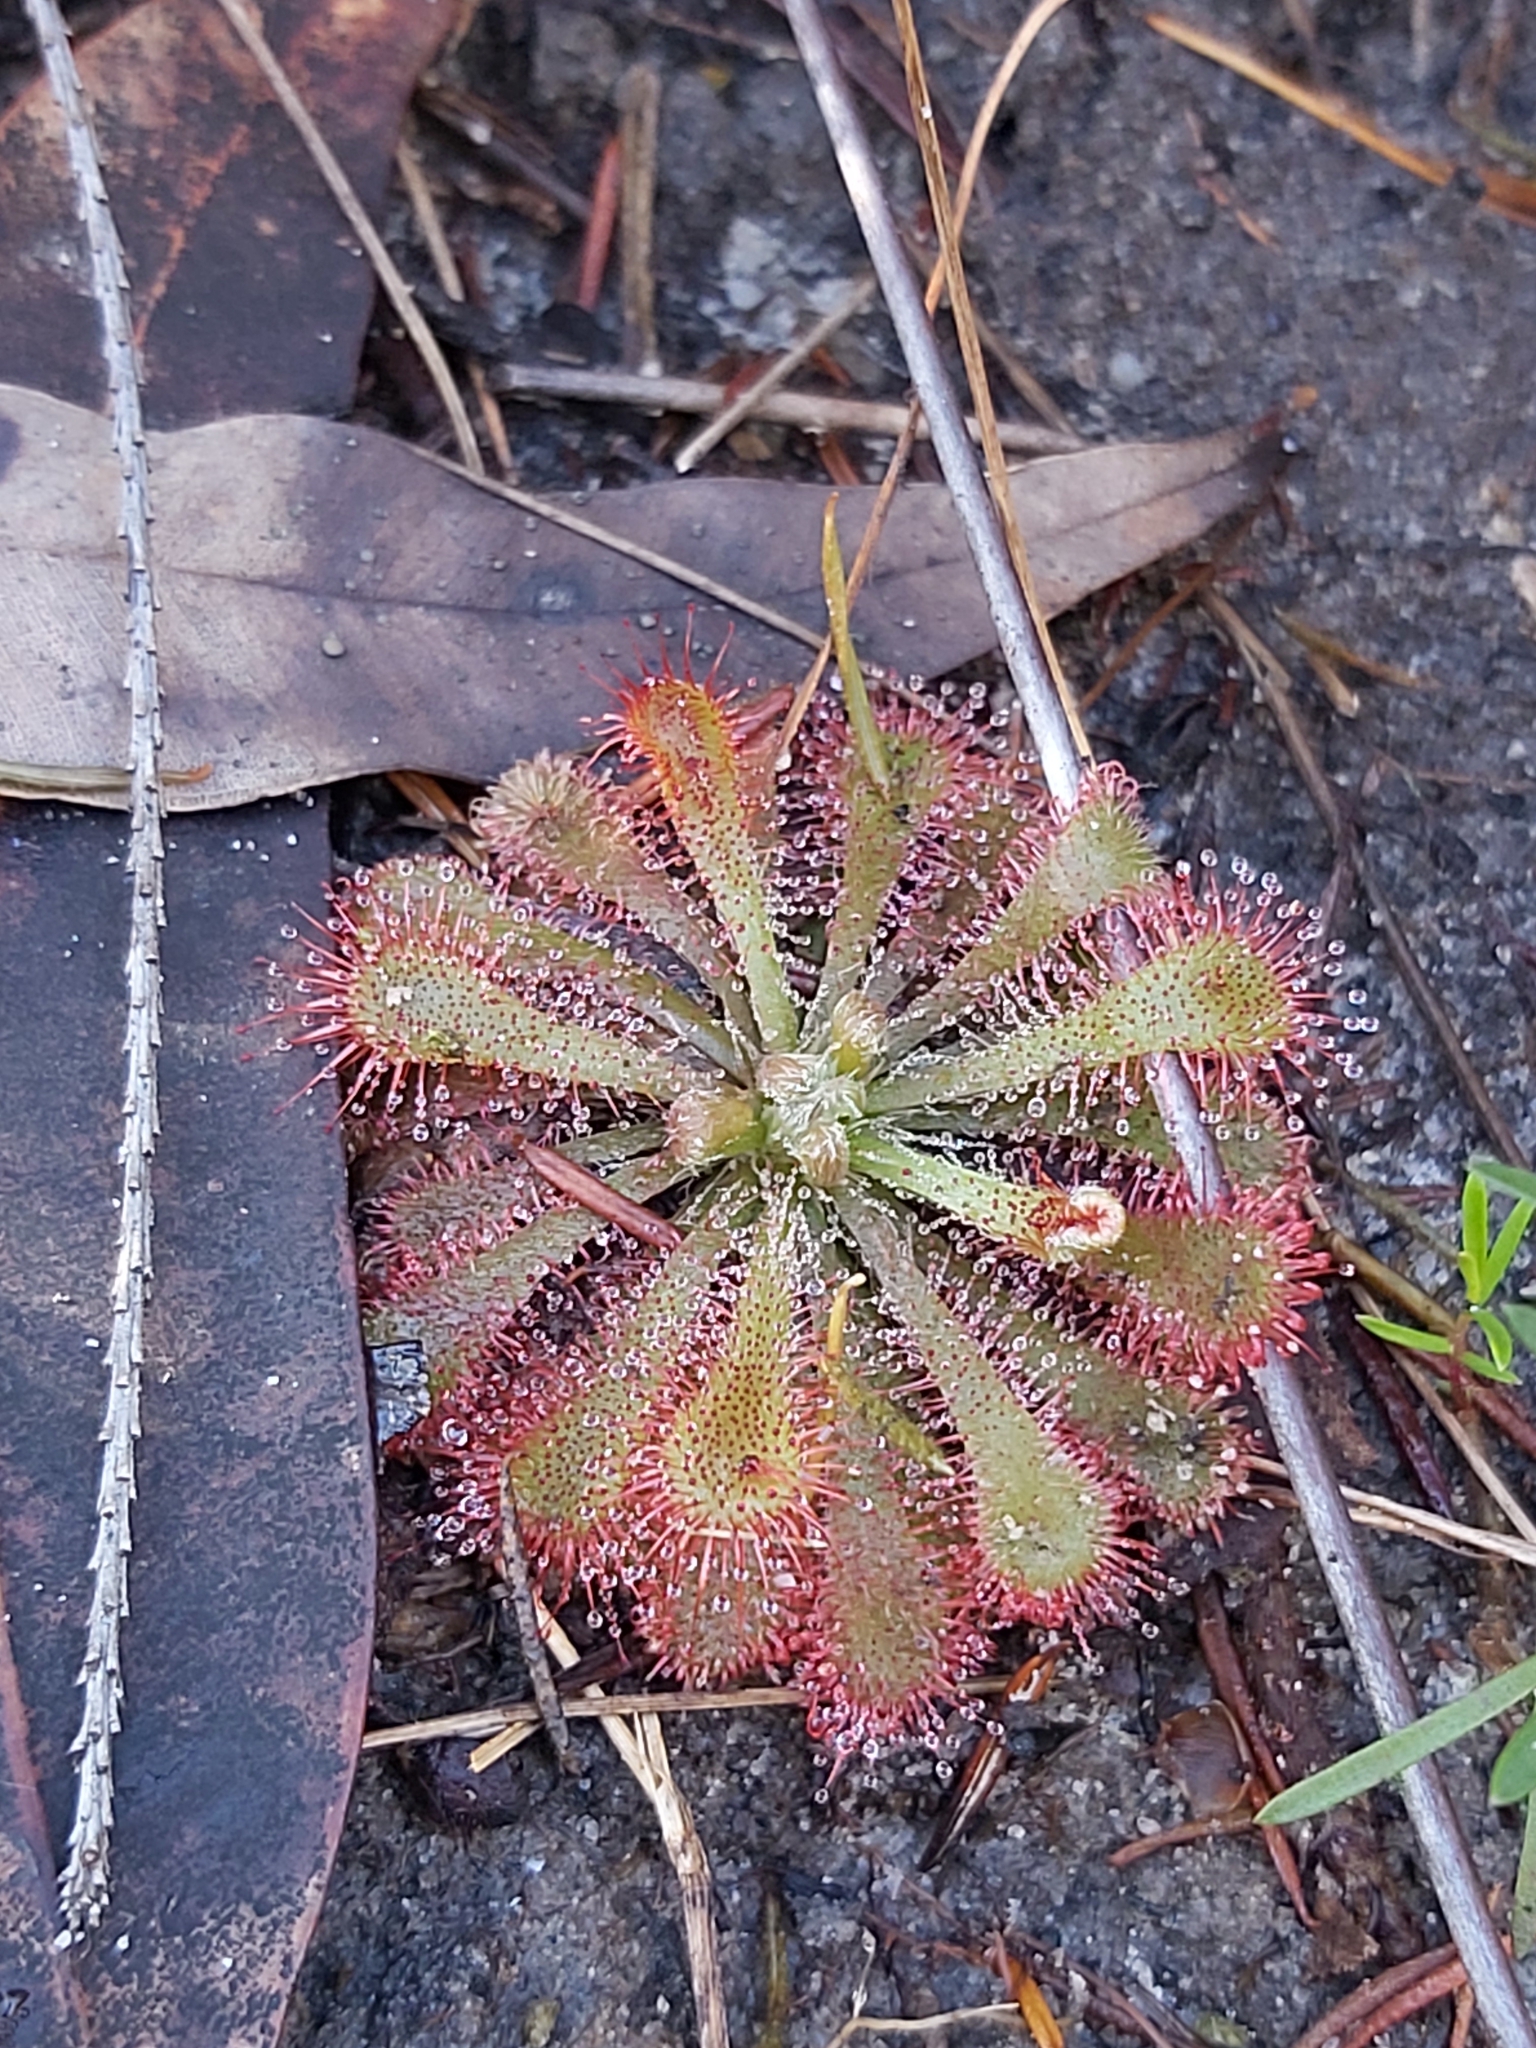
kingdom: Plantae
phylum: Tracheophyta
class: Magnoliopsida
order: Caryophyllales
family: Droseraceae
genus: Drosera
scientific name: Drosera spatulata
